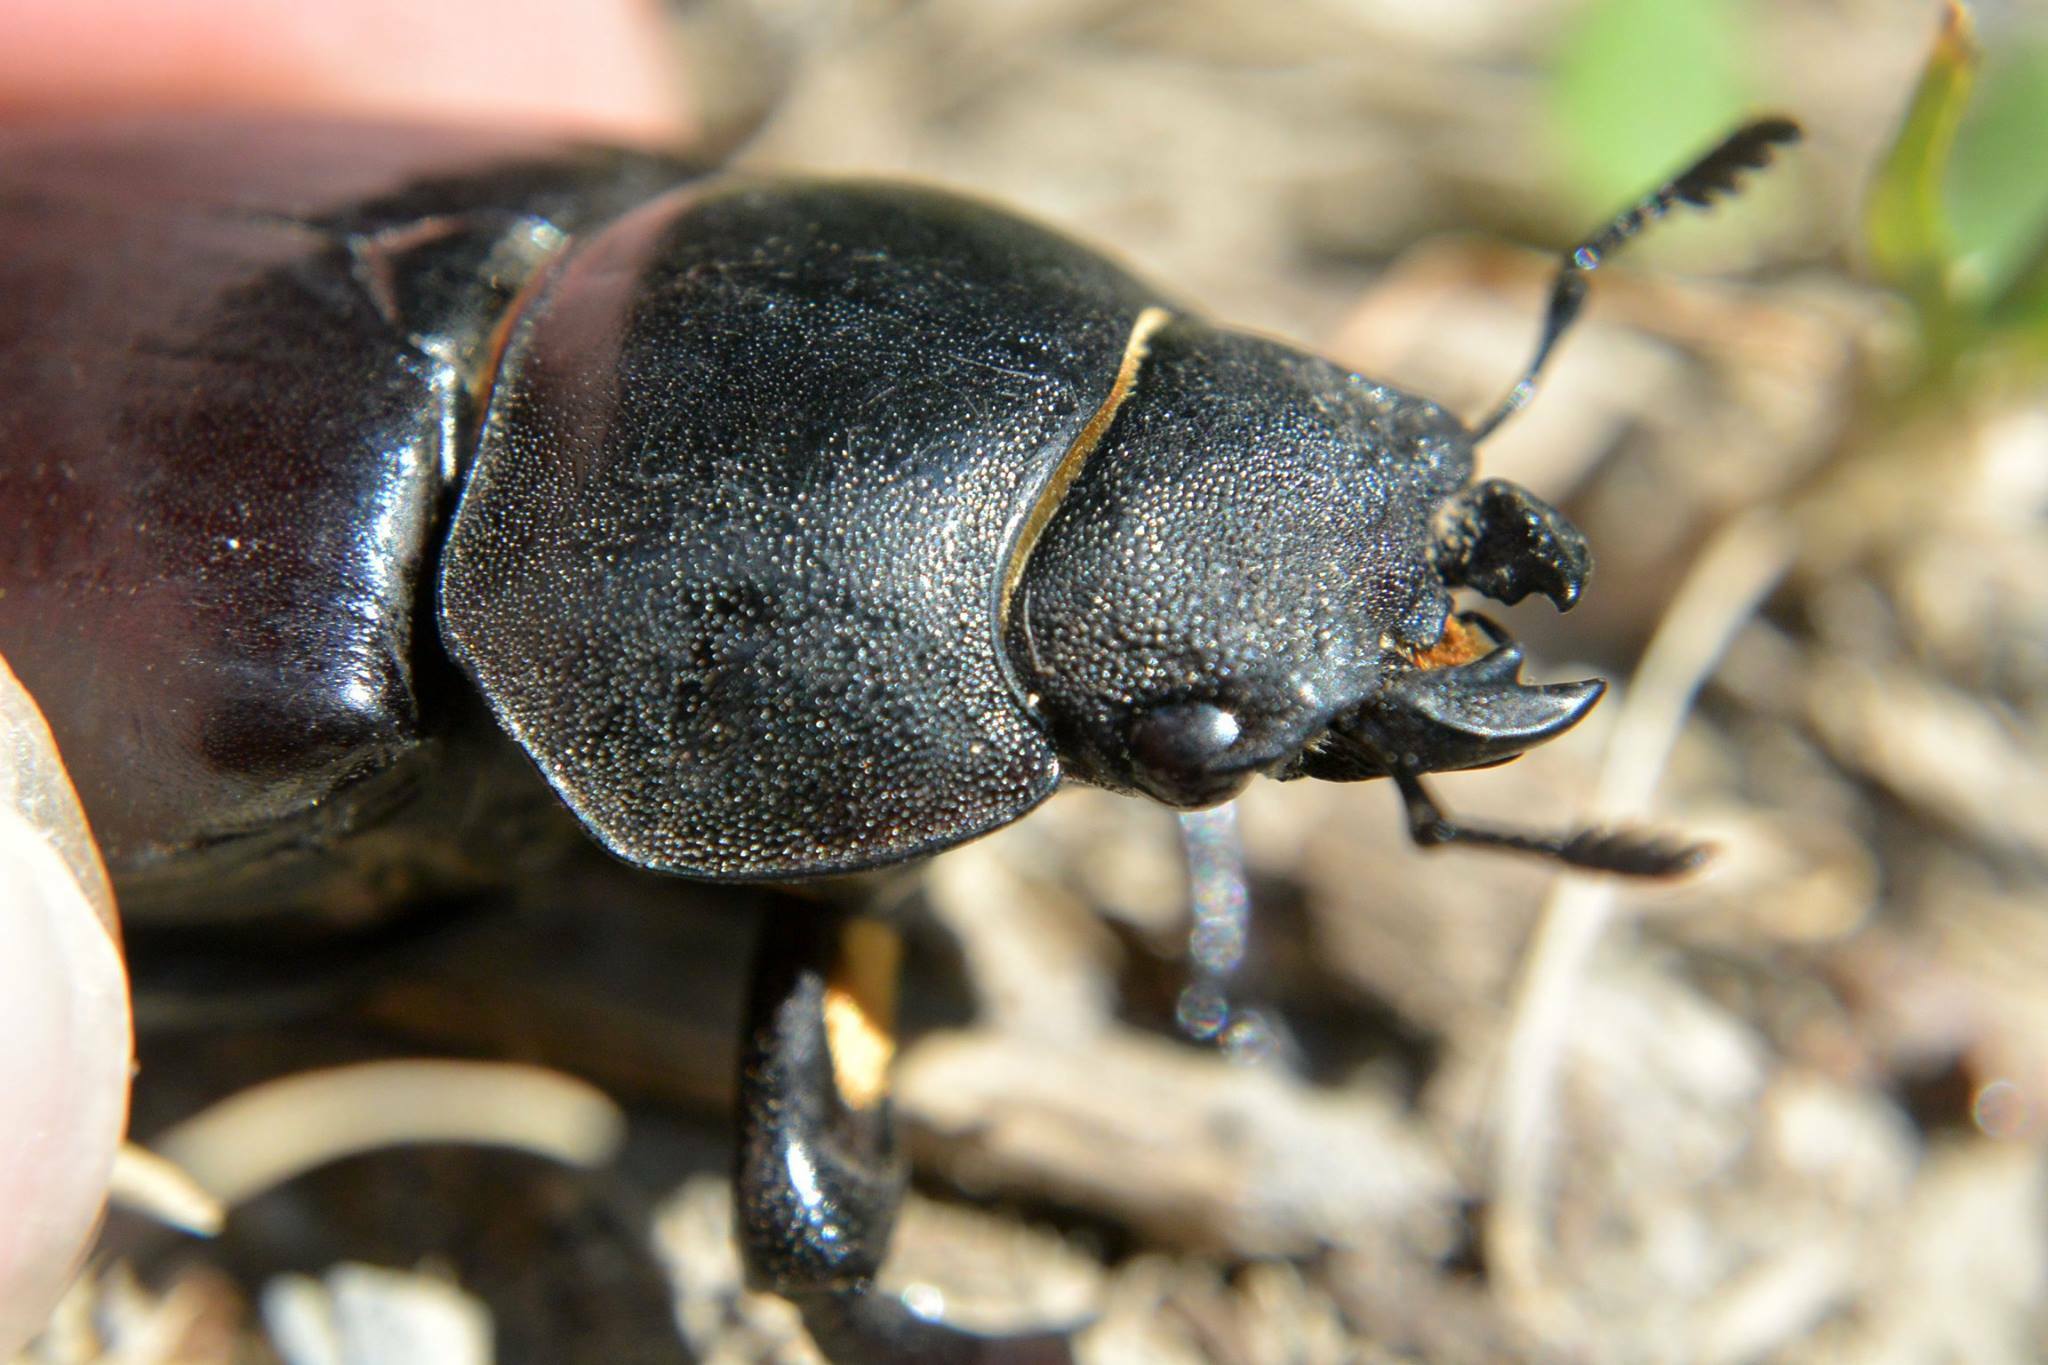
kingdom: Animalia
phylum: Arthropoda
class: Insecta
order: Coleoptera
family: Lucanidae
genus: Lucanus
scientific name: Lucanus cervus
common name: Stag beetle
